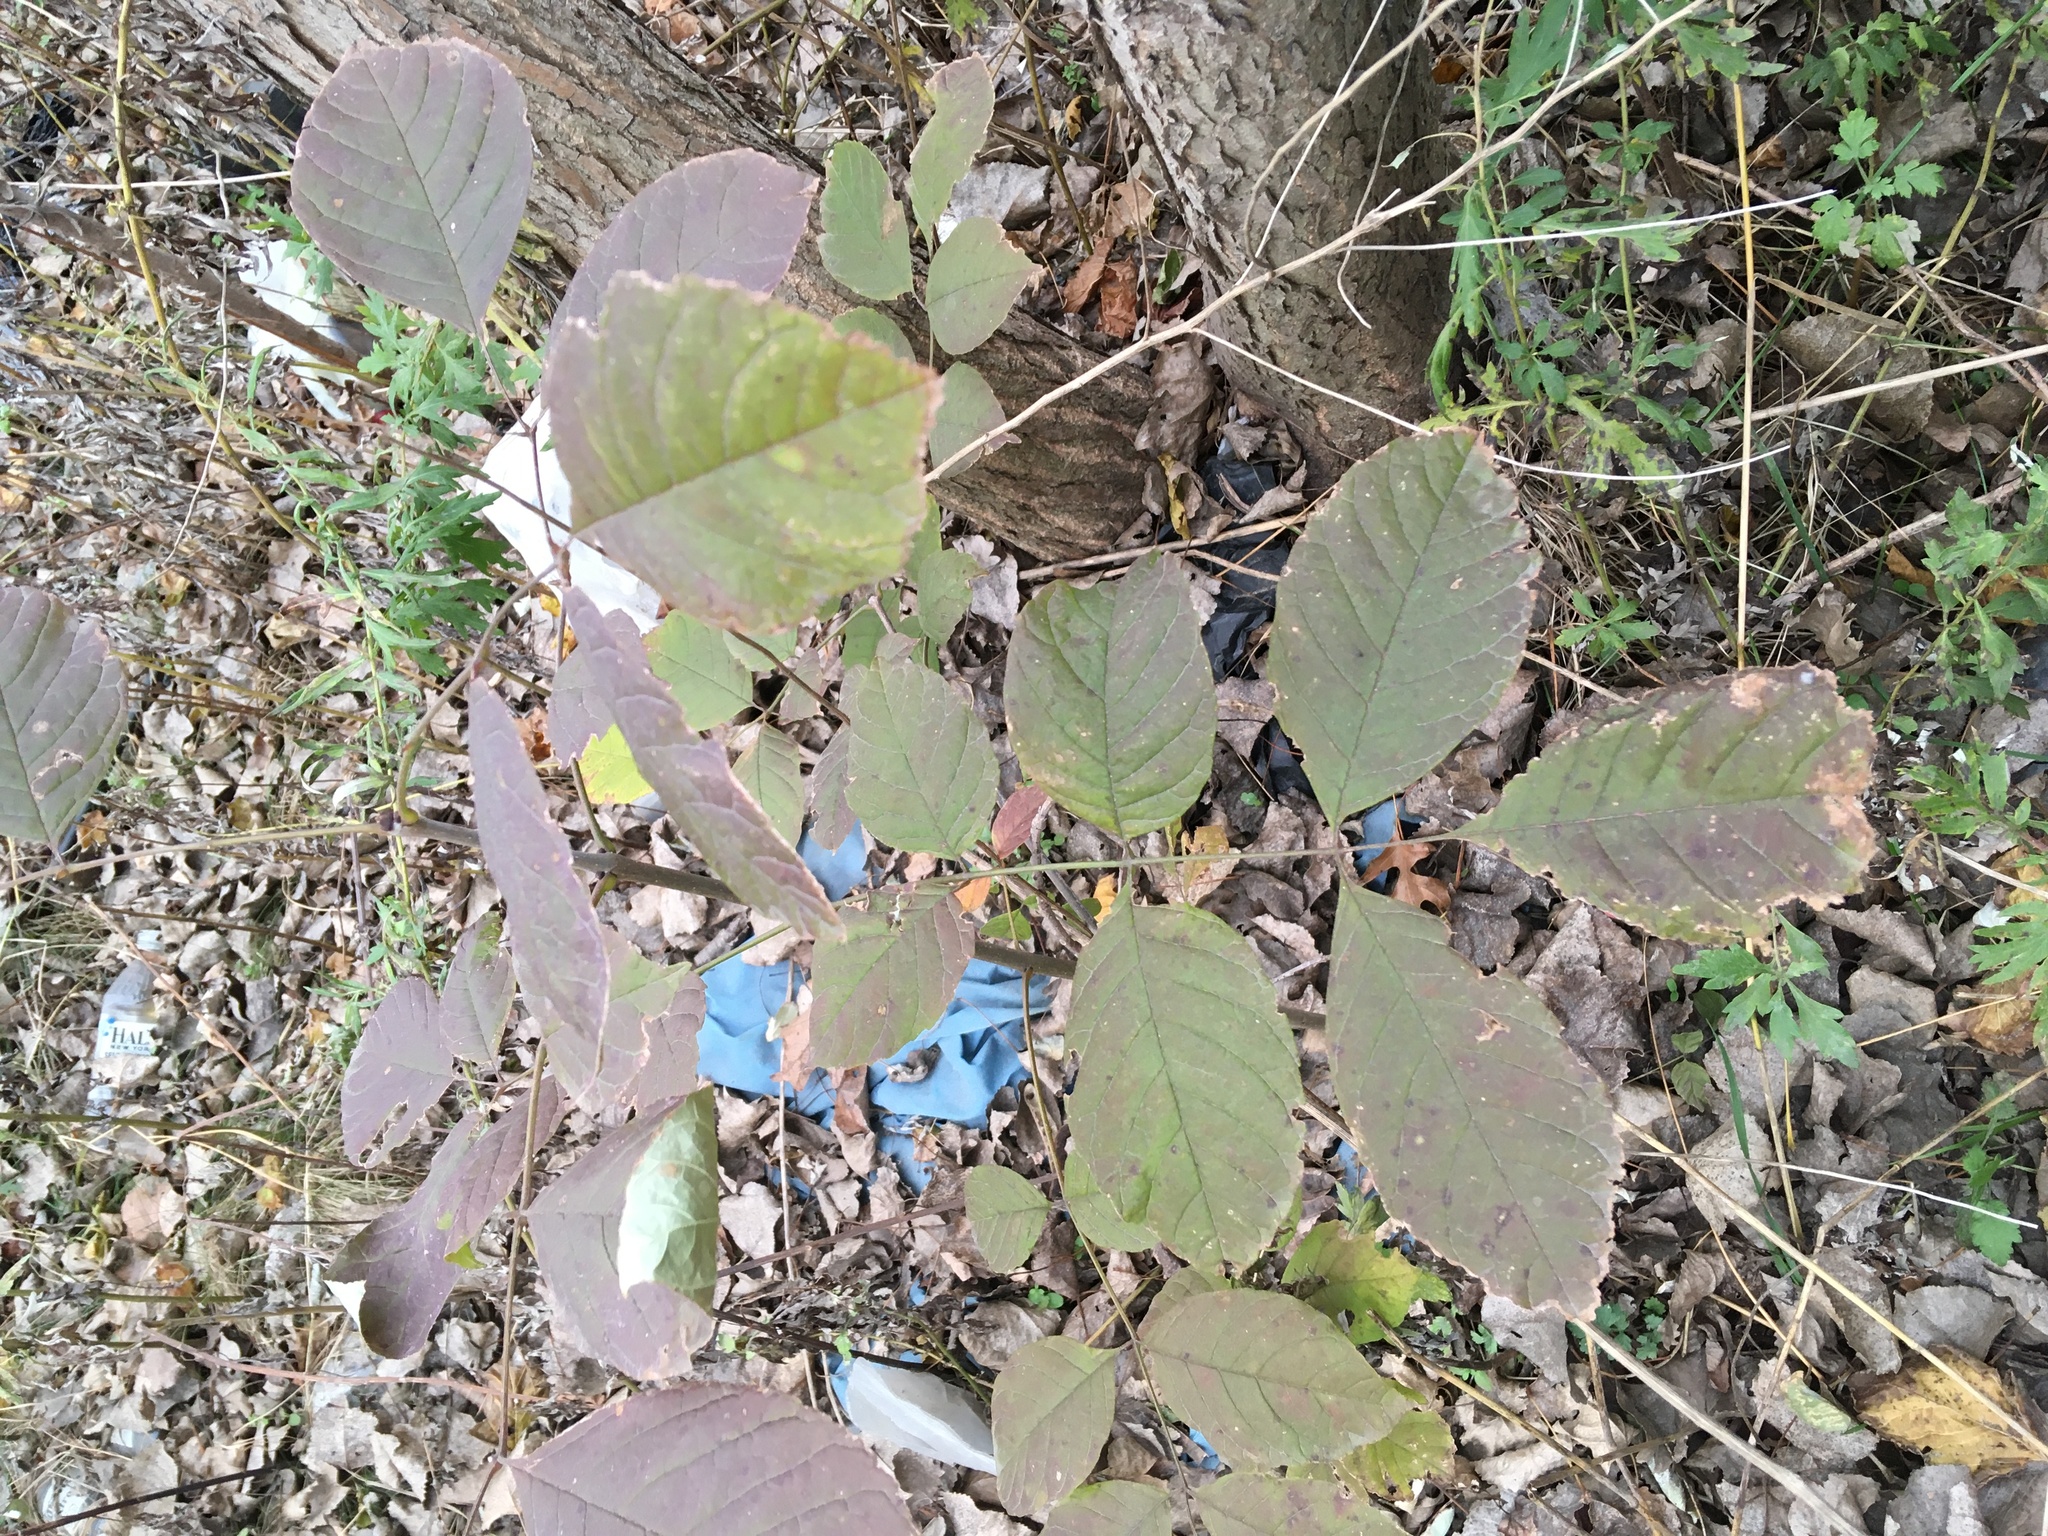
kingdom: Plantae
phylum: Tracheophyta
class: Magnoliopsida
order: Lamiales
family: Oleaceae
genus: Fraxinus
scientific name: Fraxinus pennsylvanica
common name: Green ash
